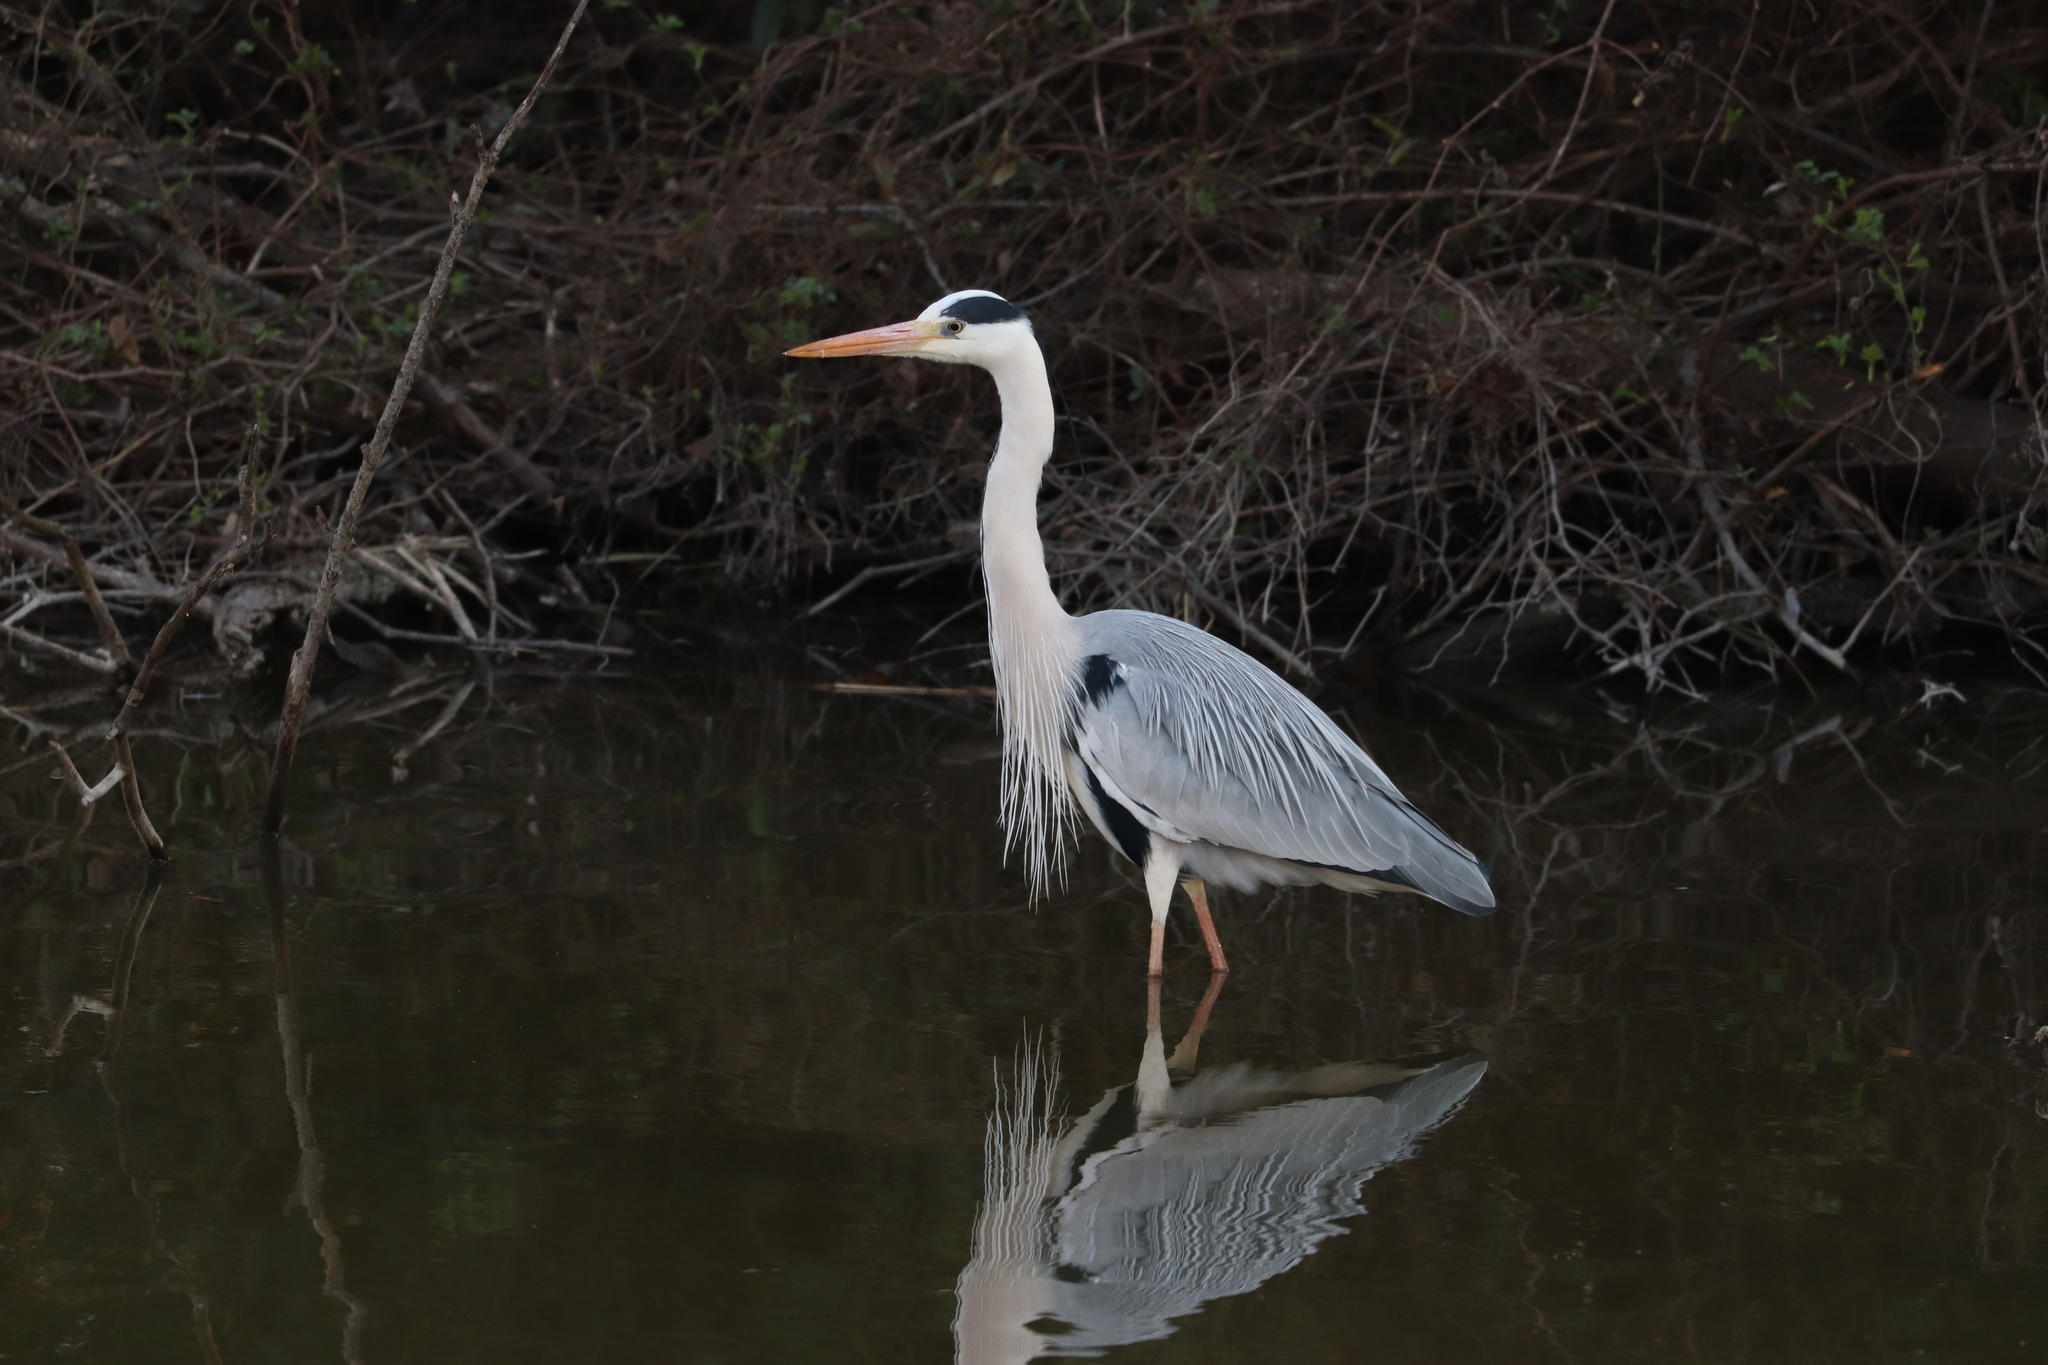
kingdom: Animalia
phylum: Chordata
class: Aves
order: Pelecaniformes
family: Ardeidae
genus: Ardea
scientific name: Ardea cinerea
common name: Grey heron
